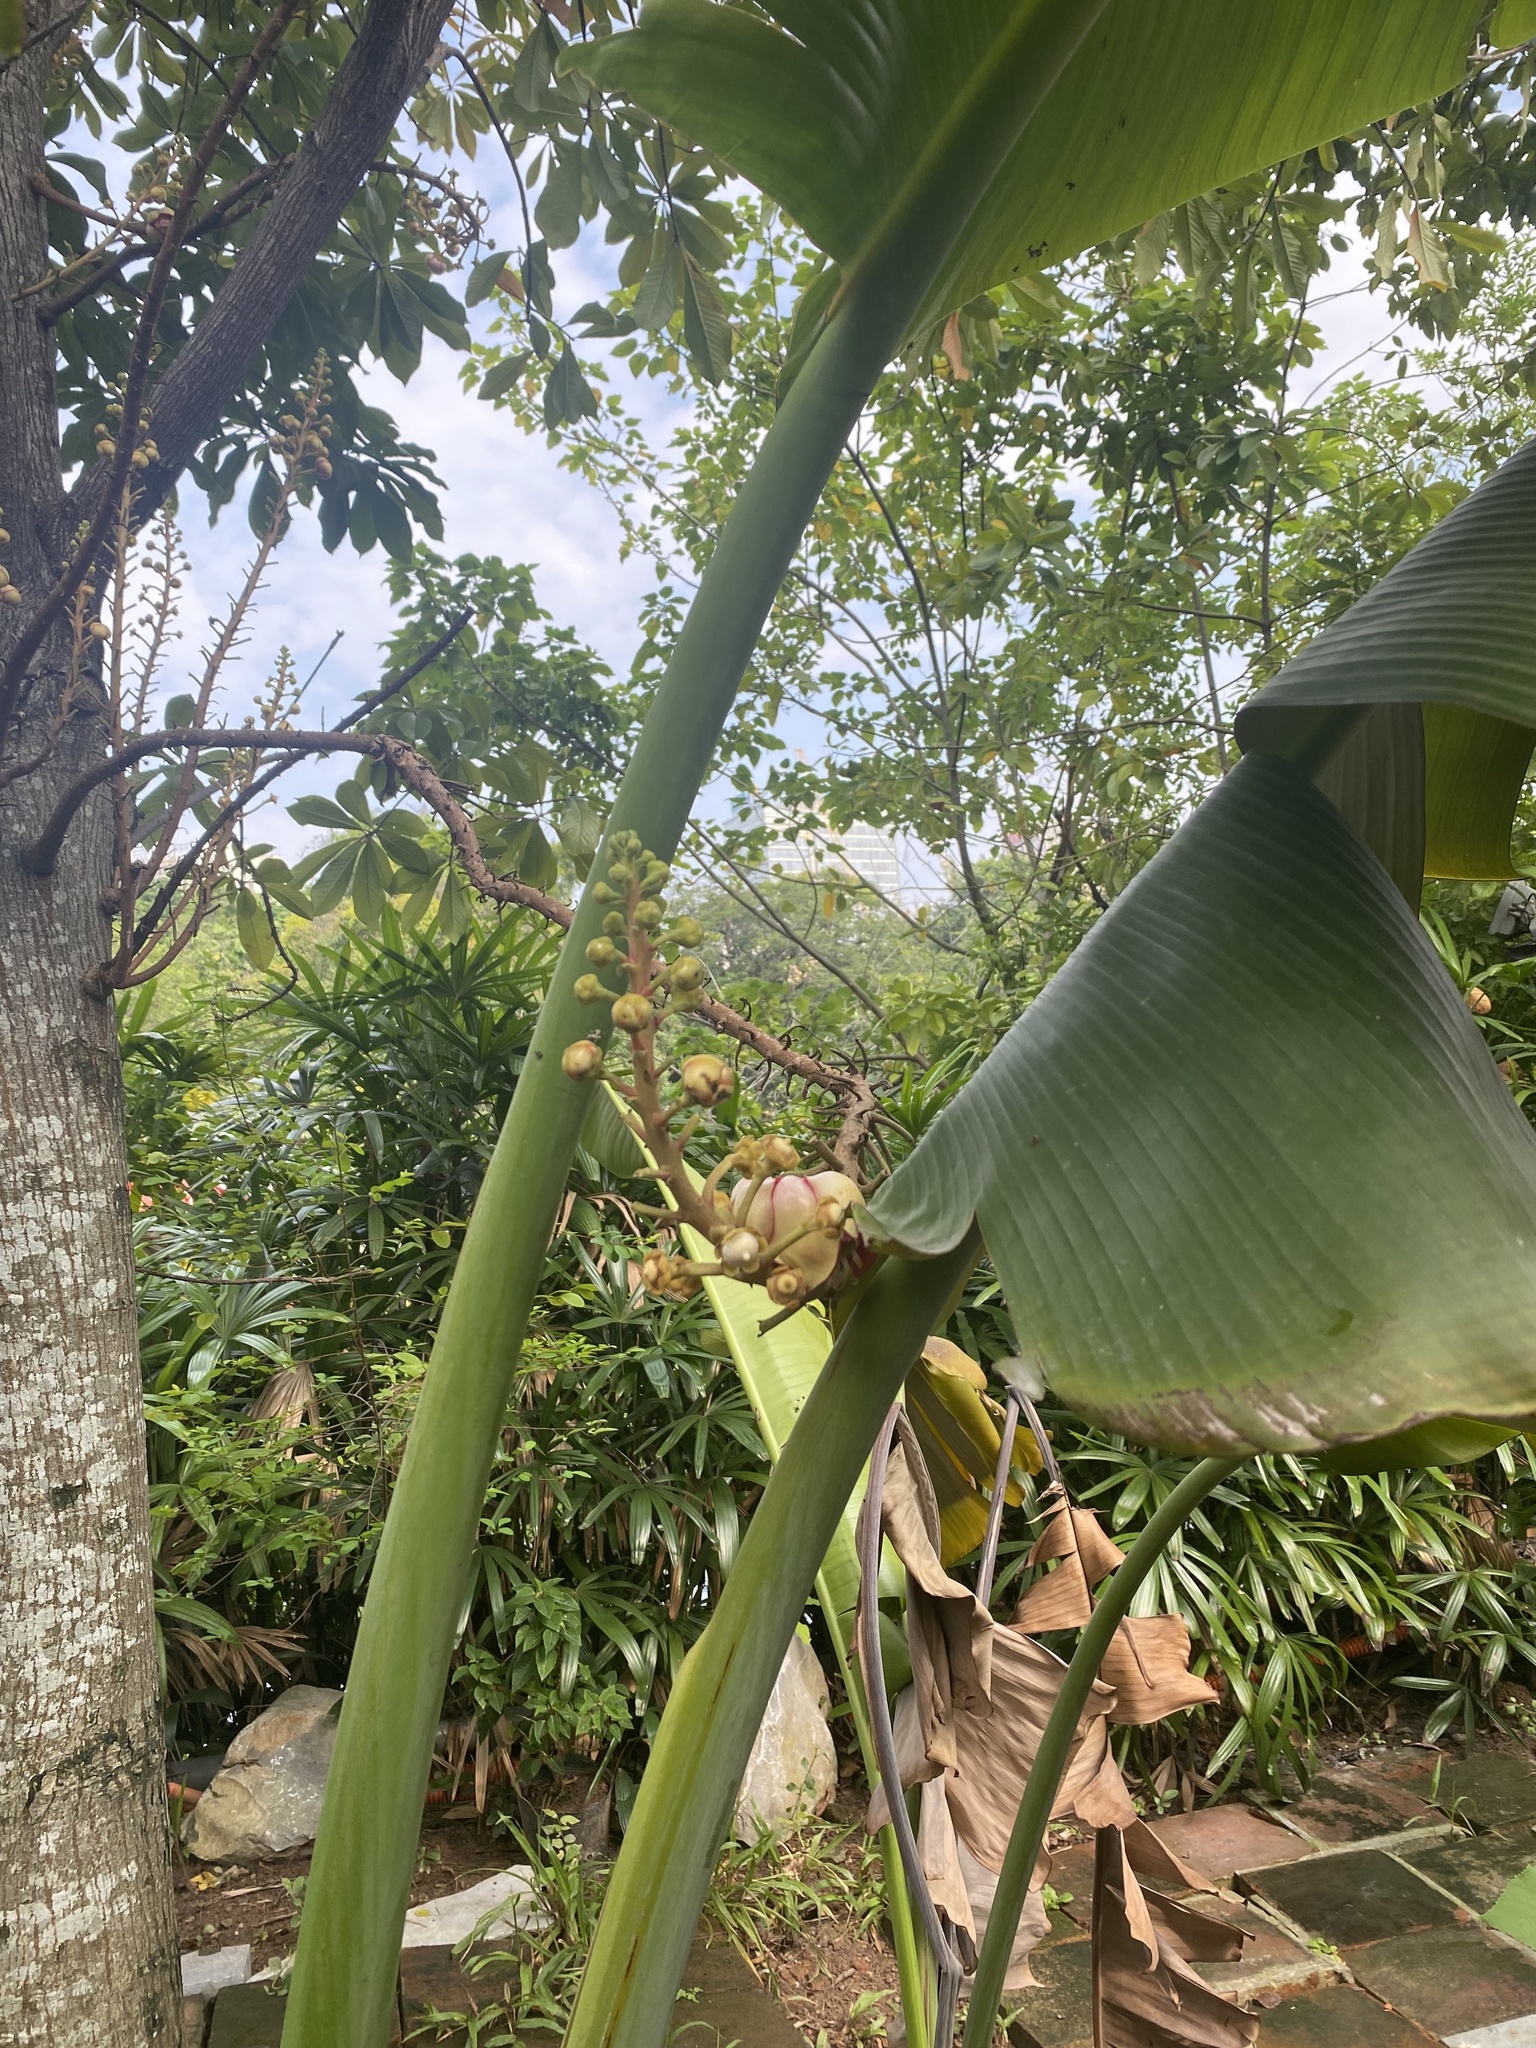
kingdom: Plantae
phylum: Tracheophyta
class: Magnoliopsida
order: Ericales
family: Lecythidaceae
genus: Couroupita
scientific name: Couroupita guianensis
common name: Cannonball tree
